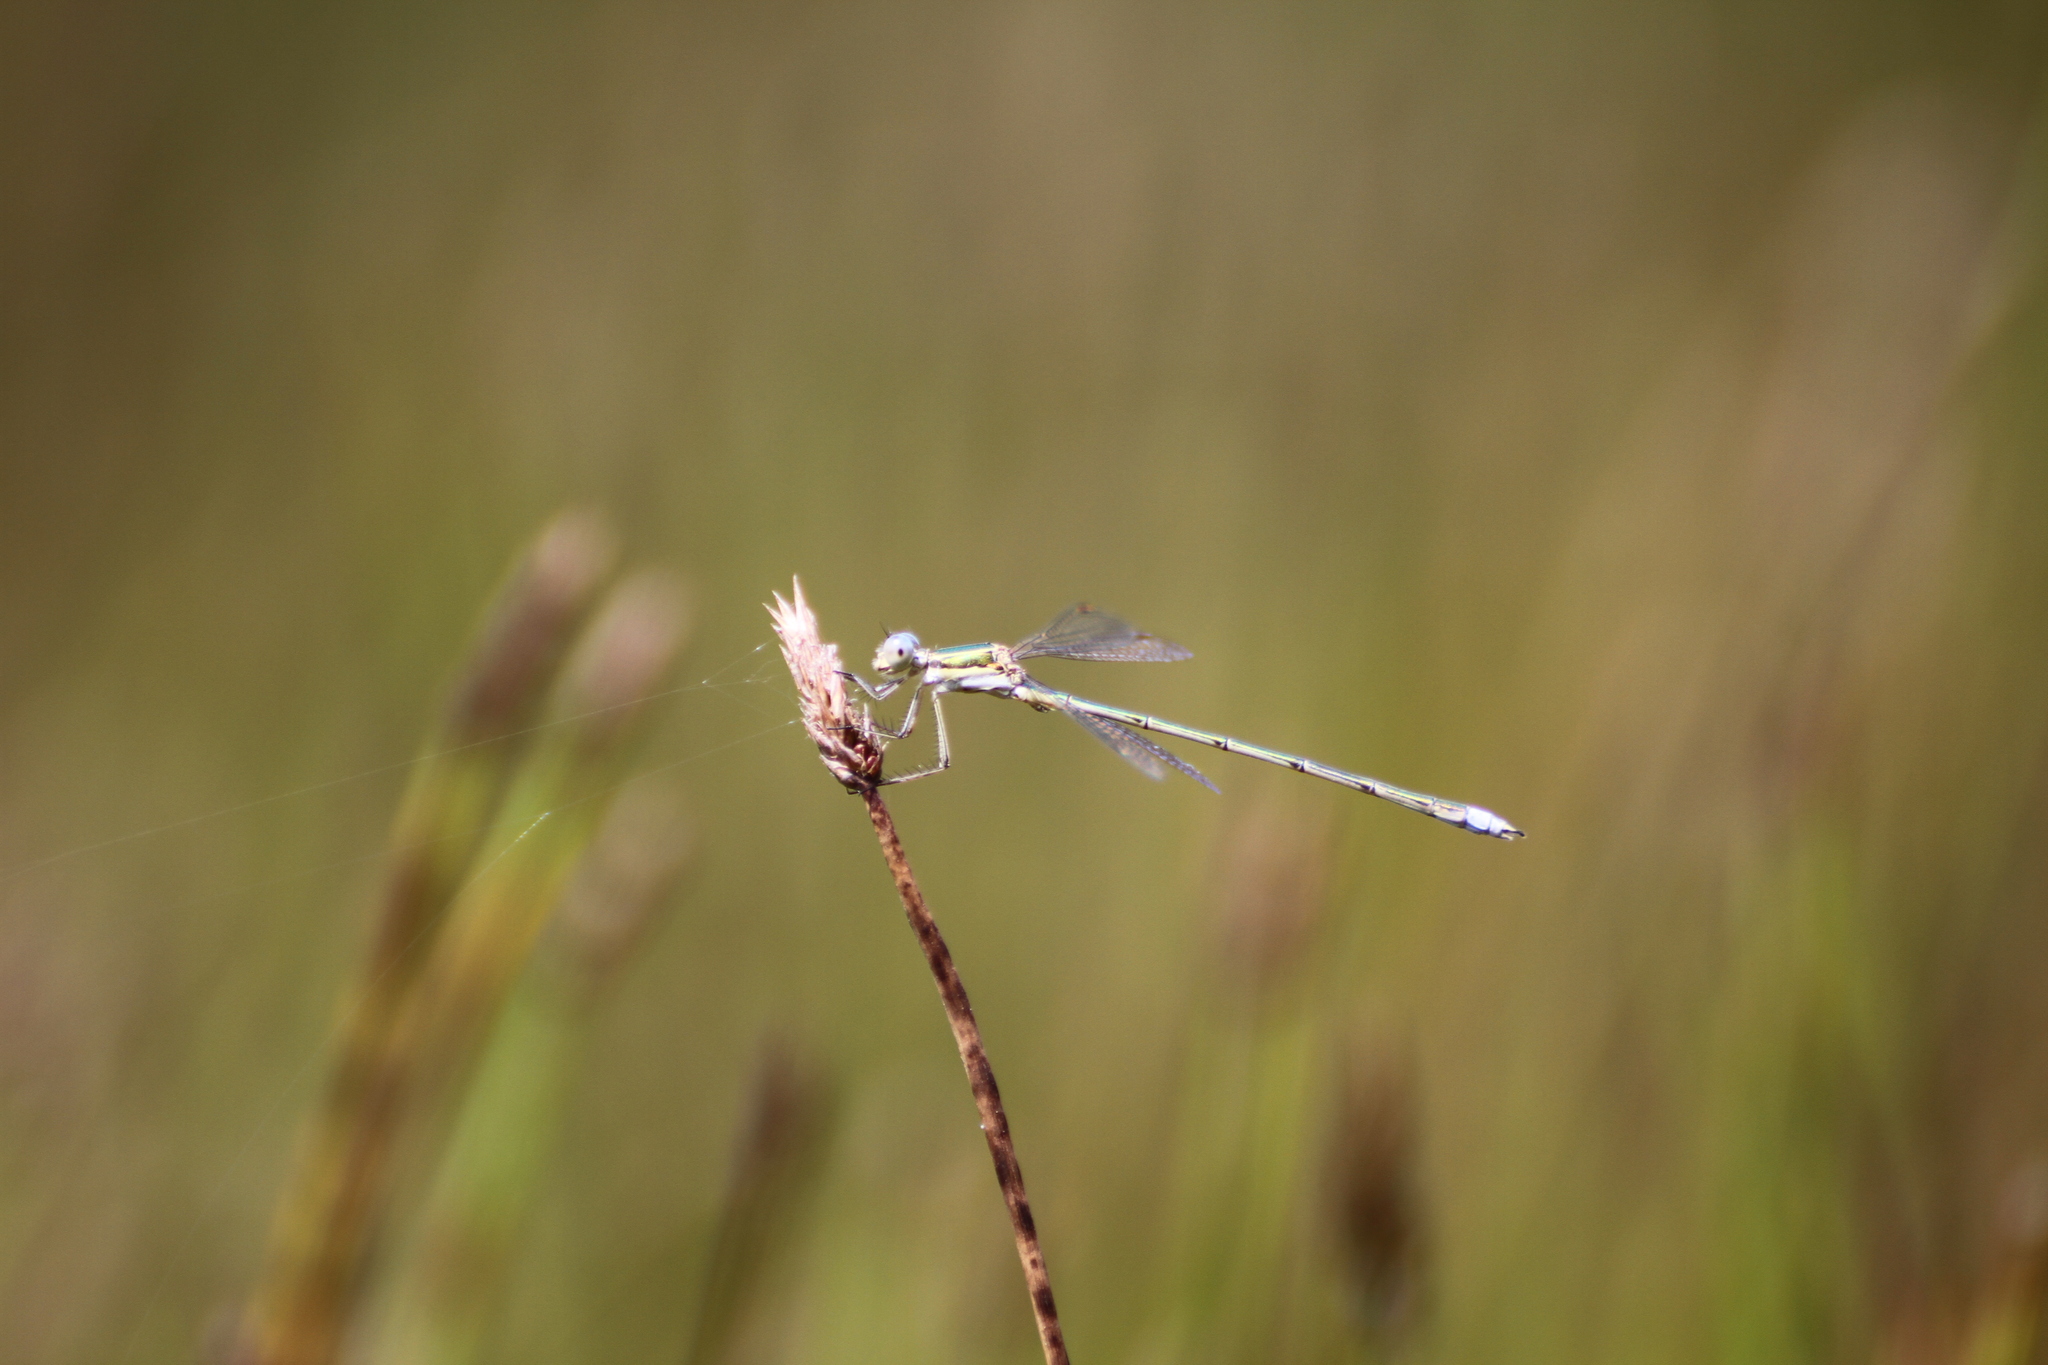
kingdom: Animalia
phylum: Arthropoda
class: Insecta
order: Odonata
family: Lestidae
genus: Lestes
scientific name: Lestes virens
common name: Small emerald spreadwing
